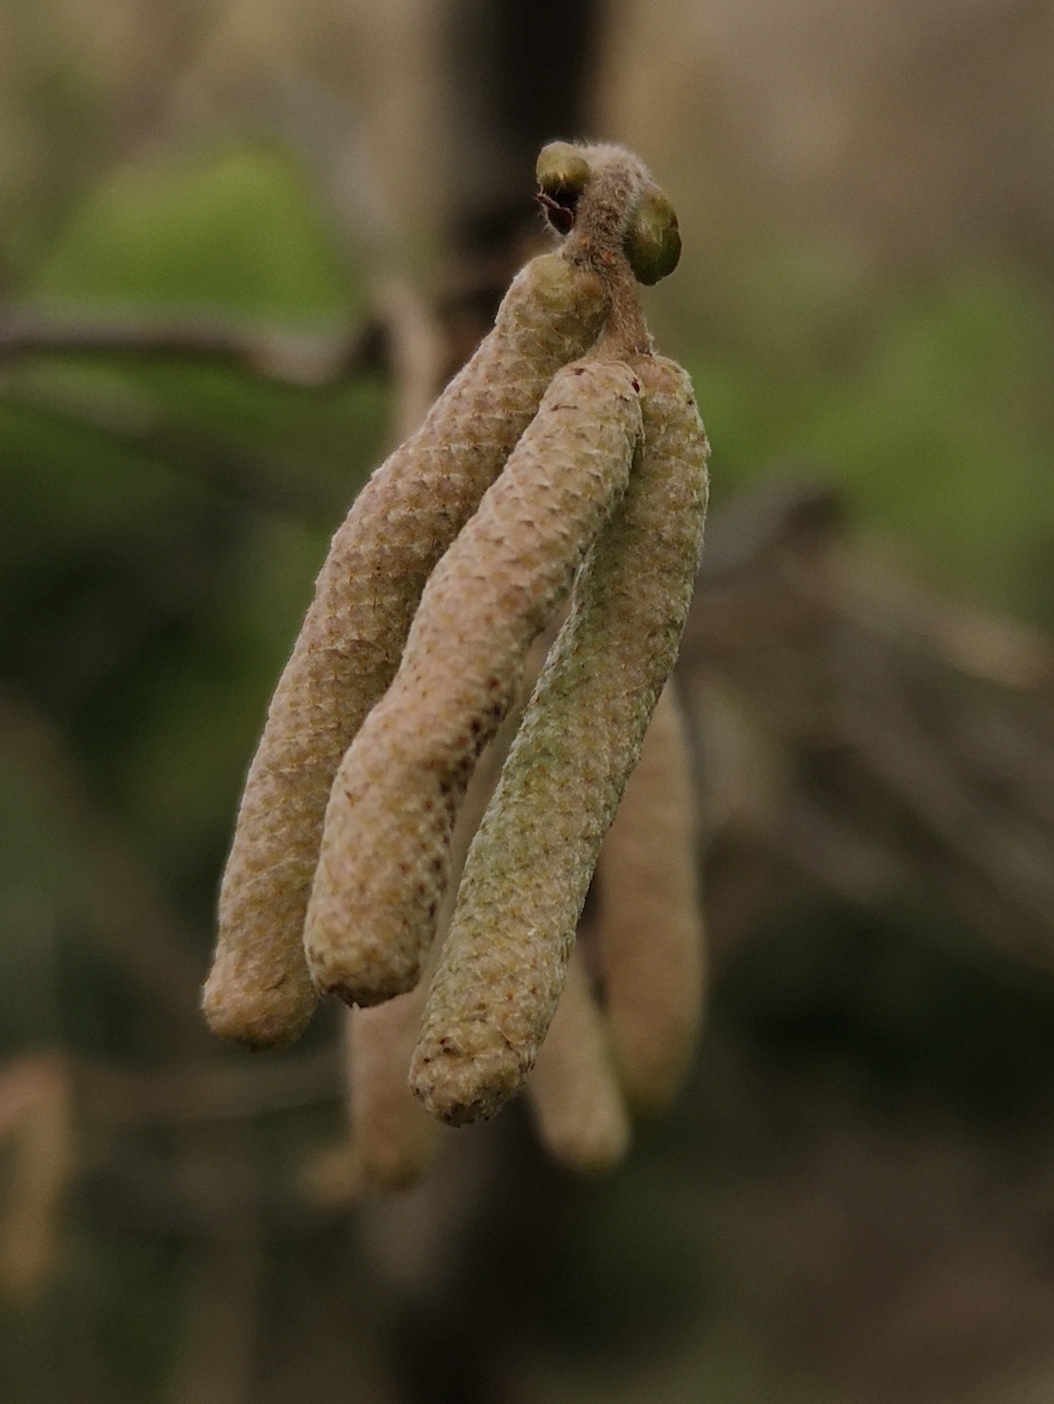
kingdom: Plantae
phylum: Tracheophyta
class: Magnoliopsida
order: Fagales
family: Betulaceae
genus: Corylus
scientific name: Corylus avellana
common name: European hazel
